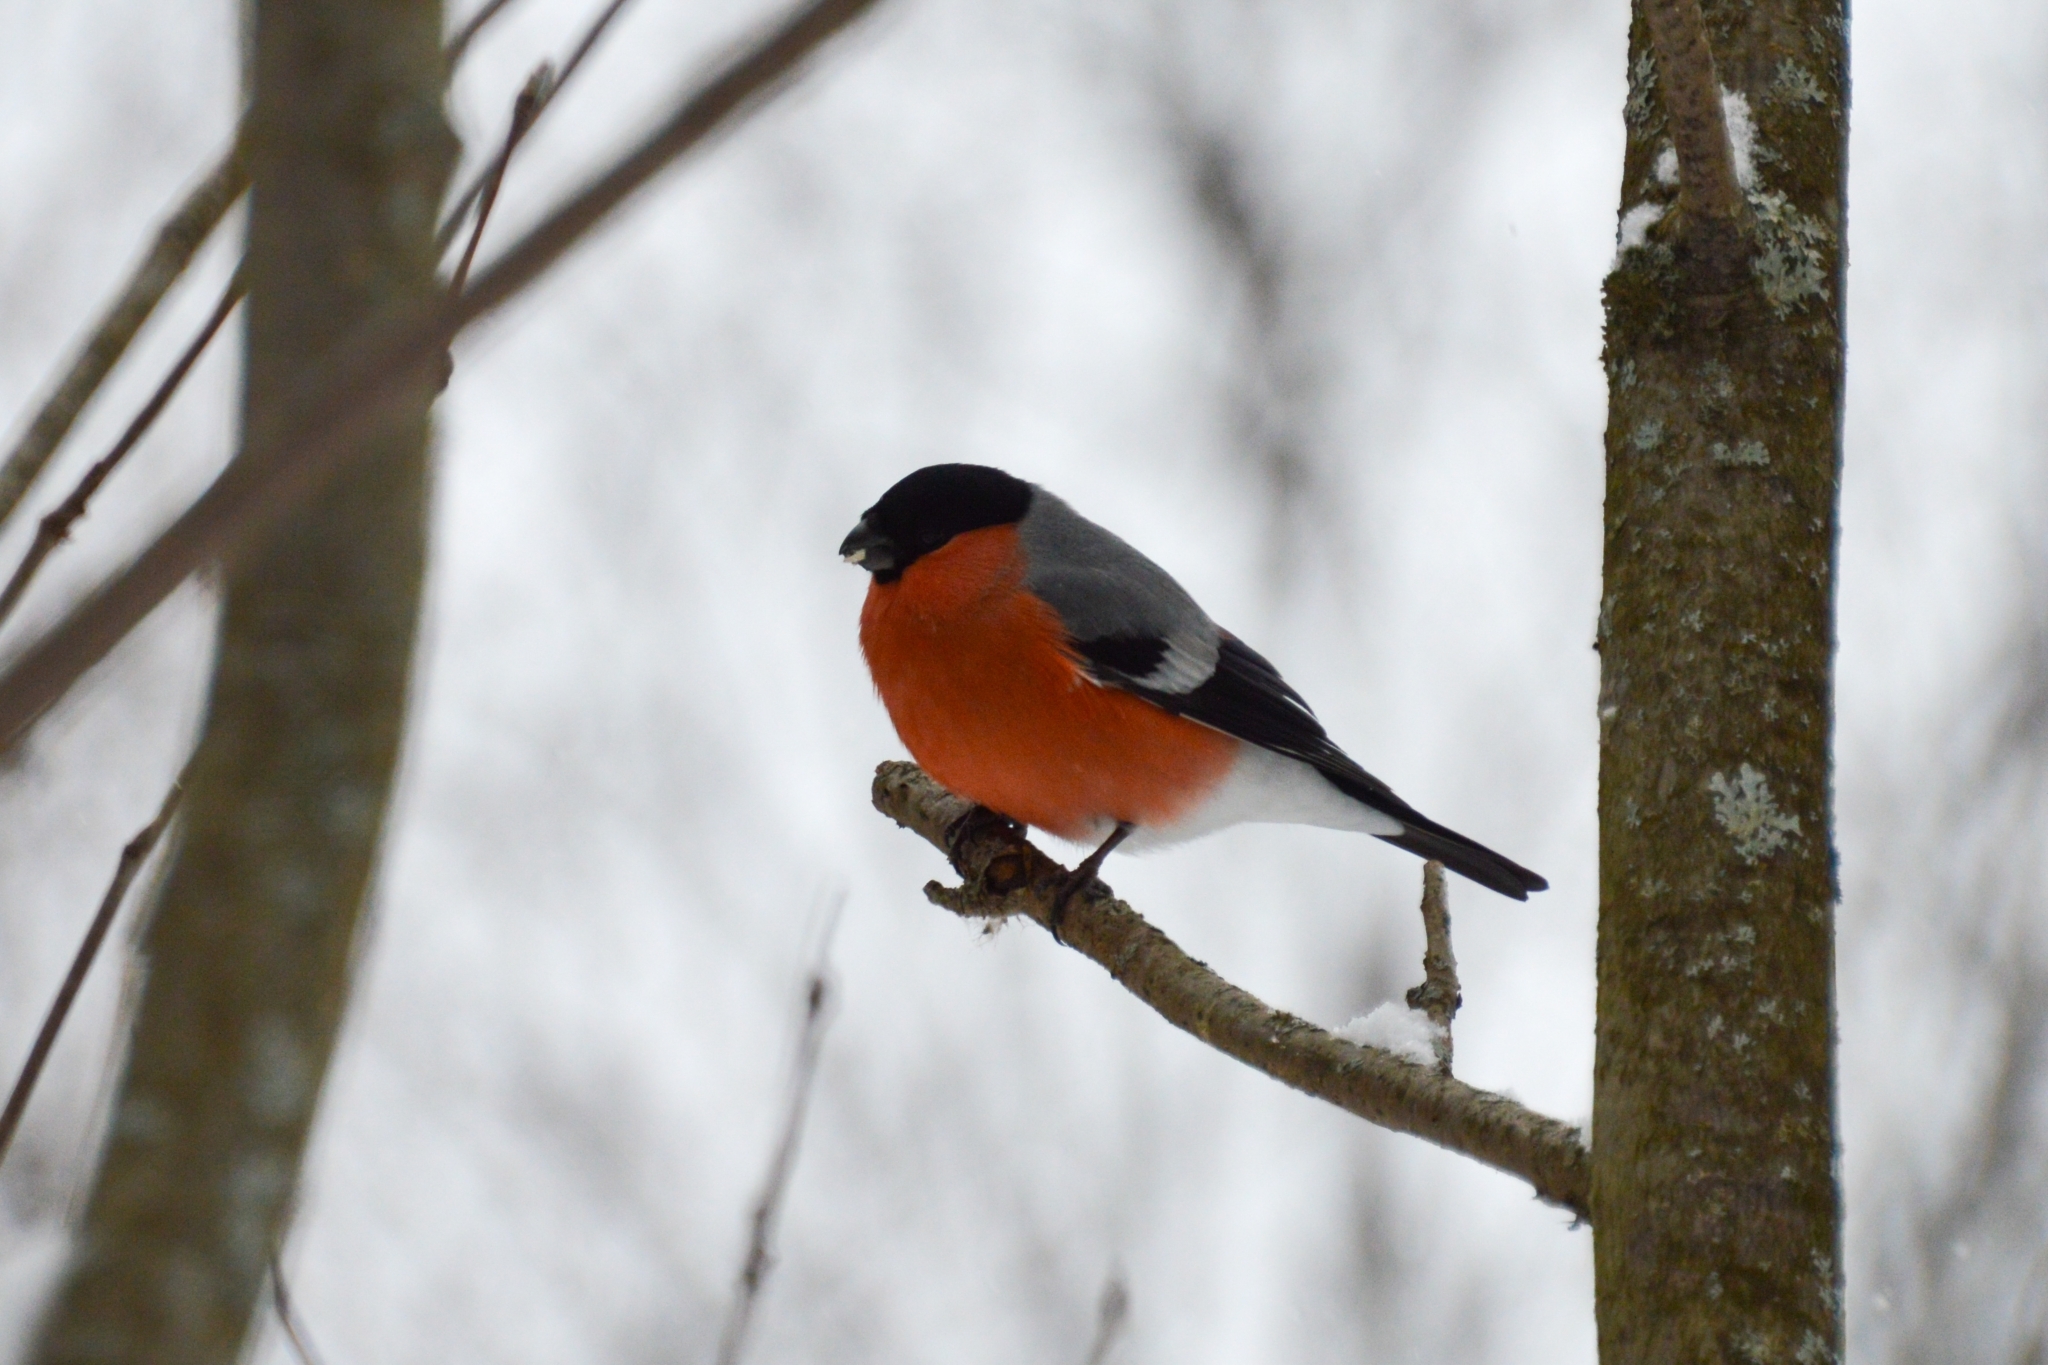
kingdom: Animalia
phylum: Chordata
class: Aves
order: Passeriformes
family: Fringillidae
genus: Pyrrhula
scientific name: Pyrrhula pyrrhula
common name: Eurasian bullfinch
